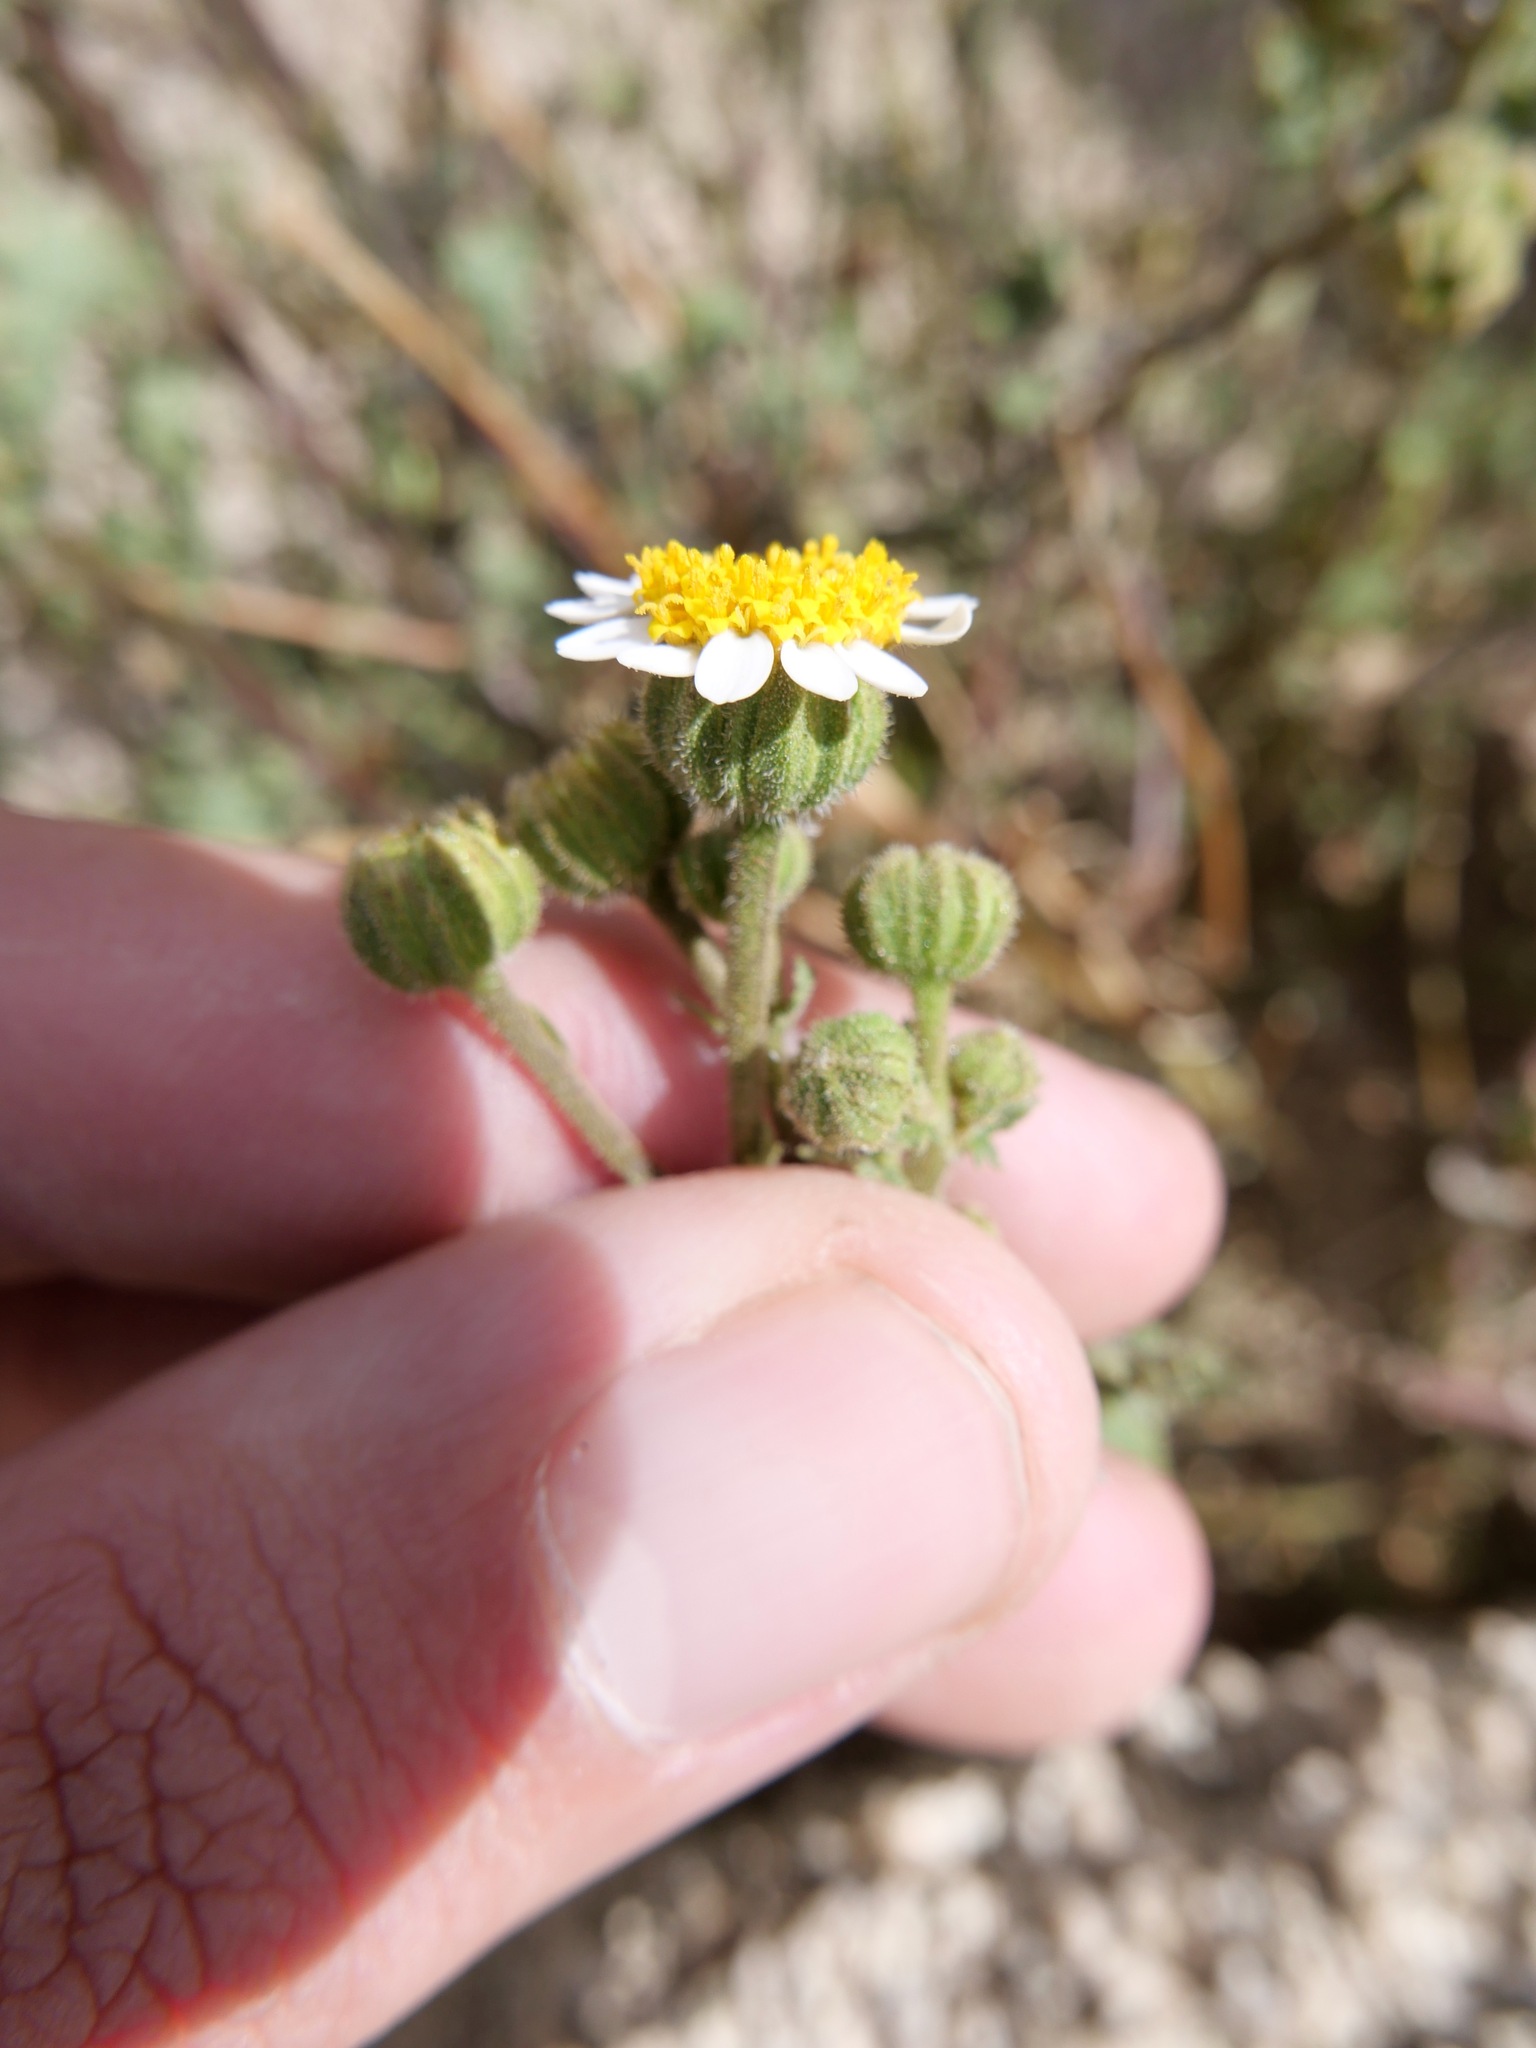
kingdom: Plantae
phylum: Tracheophyta
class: Magnoliopsida
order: Asterales
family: Asteraceae
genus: Laphamia
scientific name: Laphamia emoryi
